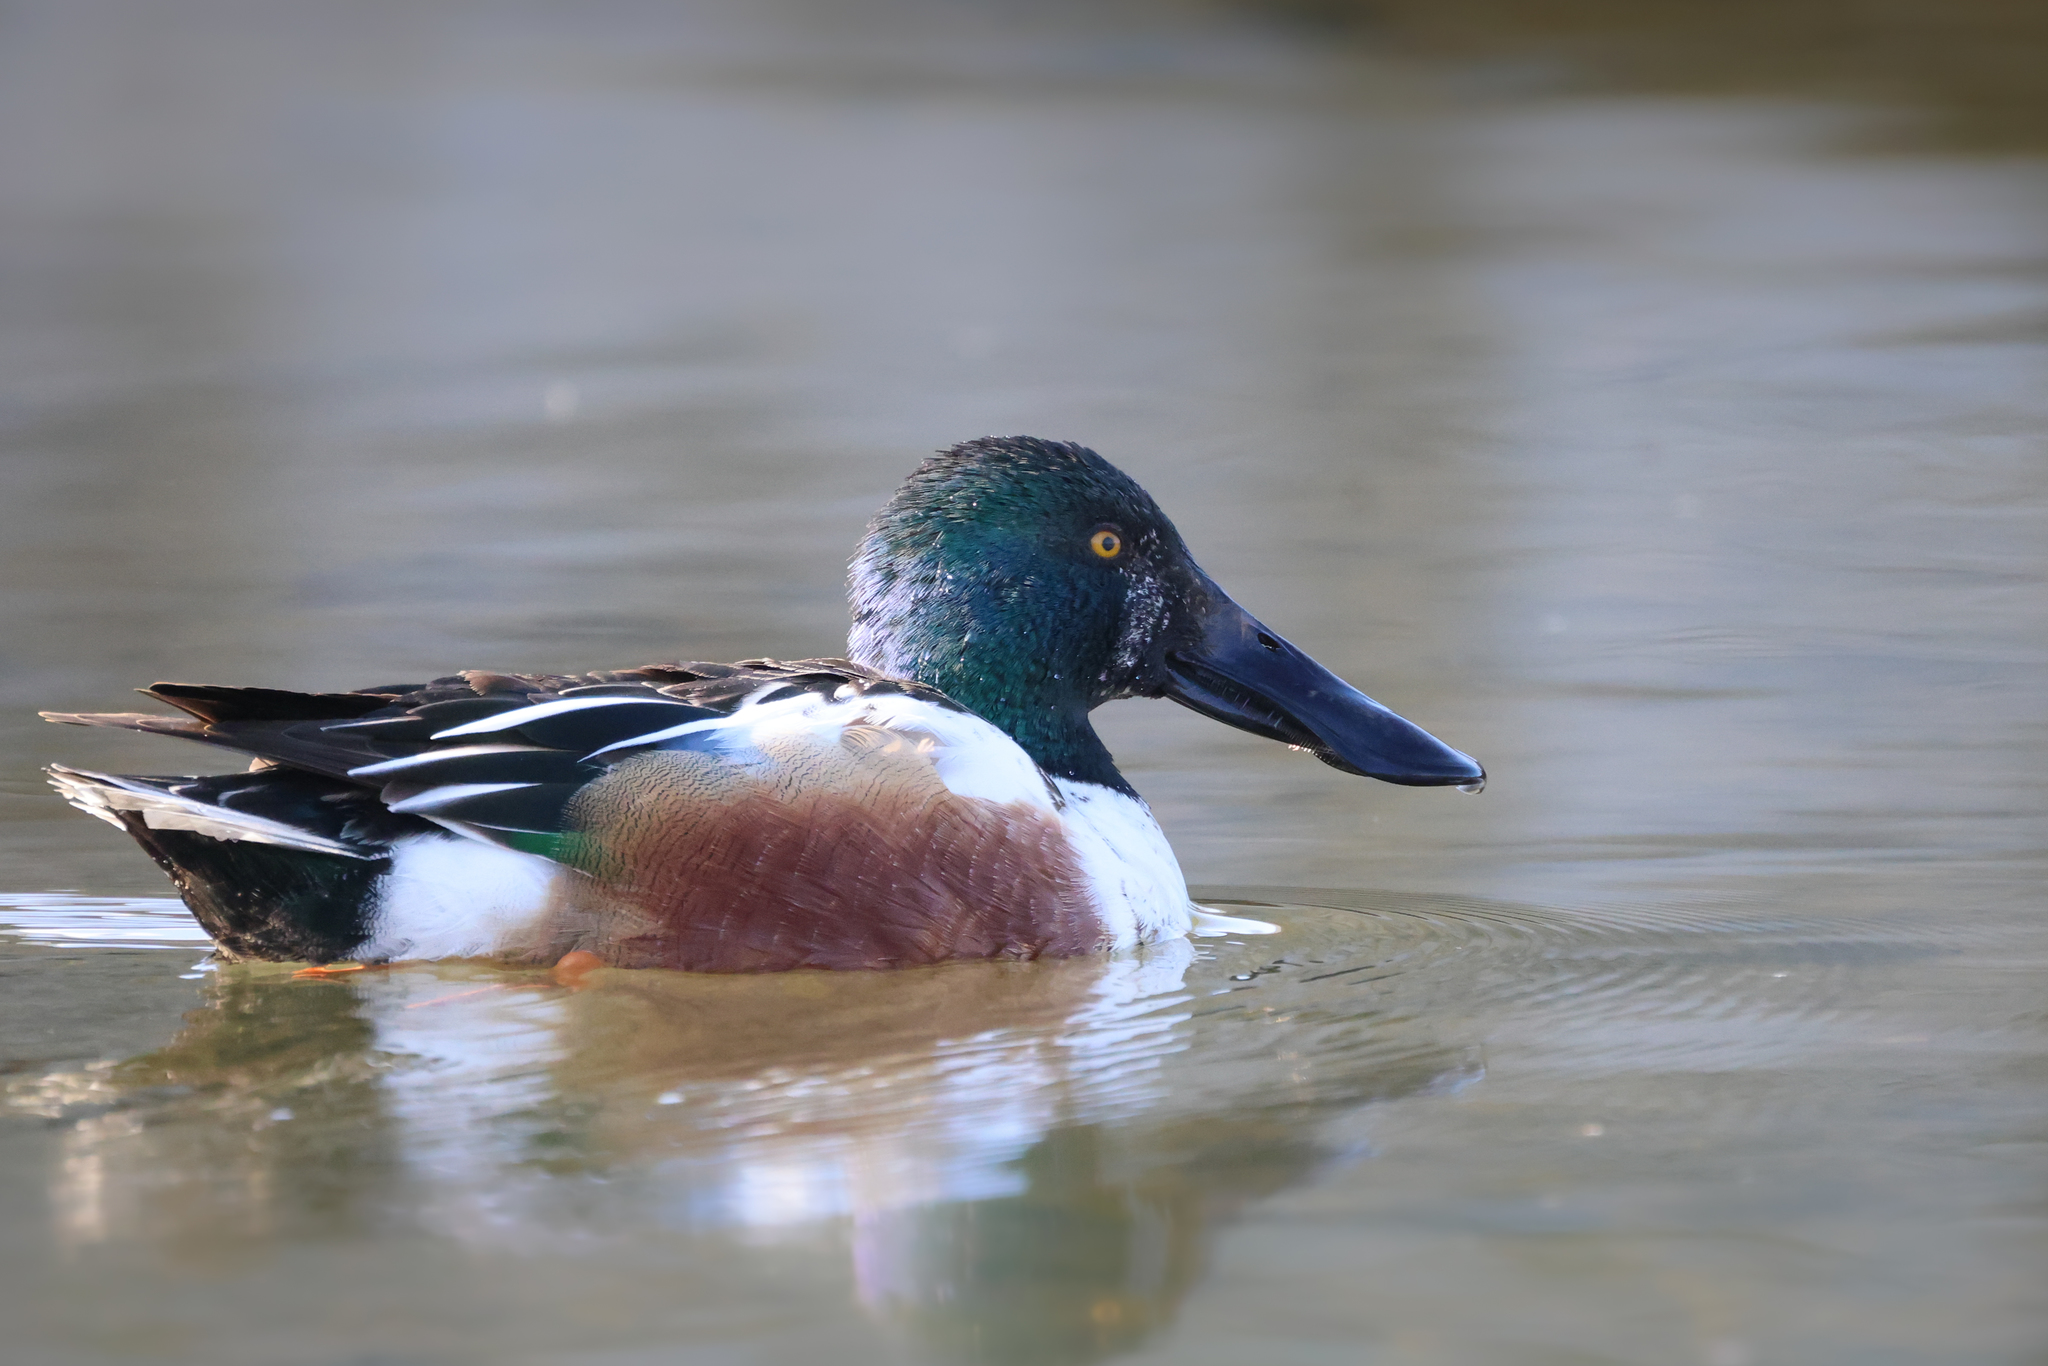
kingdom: Animalia
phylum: Chordata
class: Aves
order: Anseriformes
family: Anatidae
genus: Spatula
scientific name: Spatula clypeata
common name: Northern shoveler
